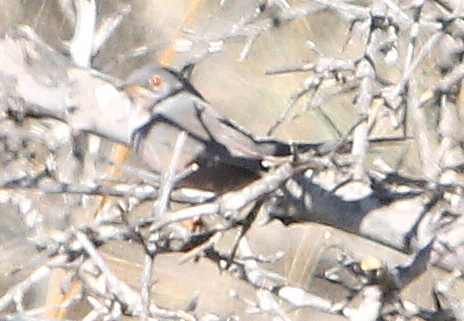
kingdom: Animalia
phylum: Chordata
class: Aves
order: Passeriformes
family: Sylviidae
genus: Sylvia
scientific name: Sylvia undata
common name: Dartford warbler
